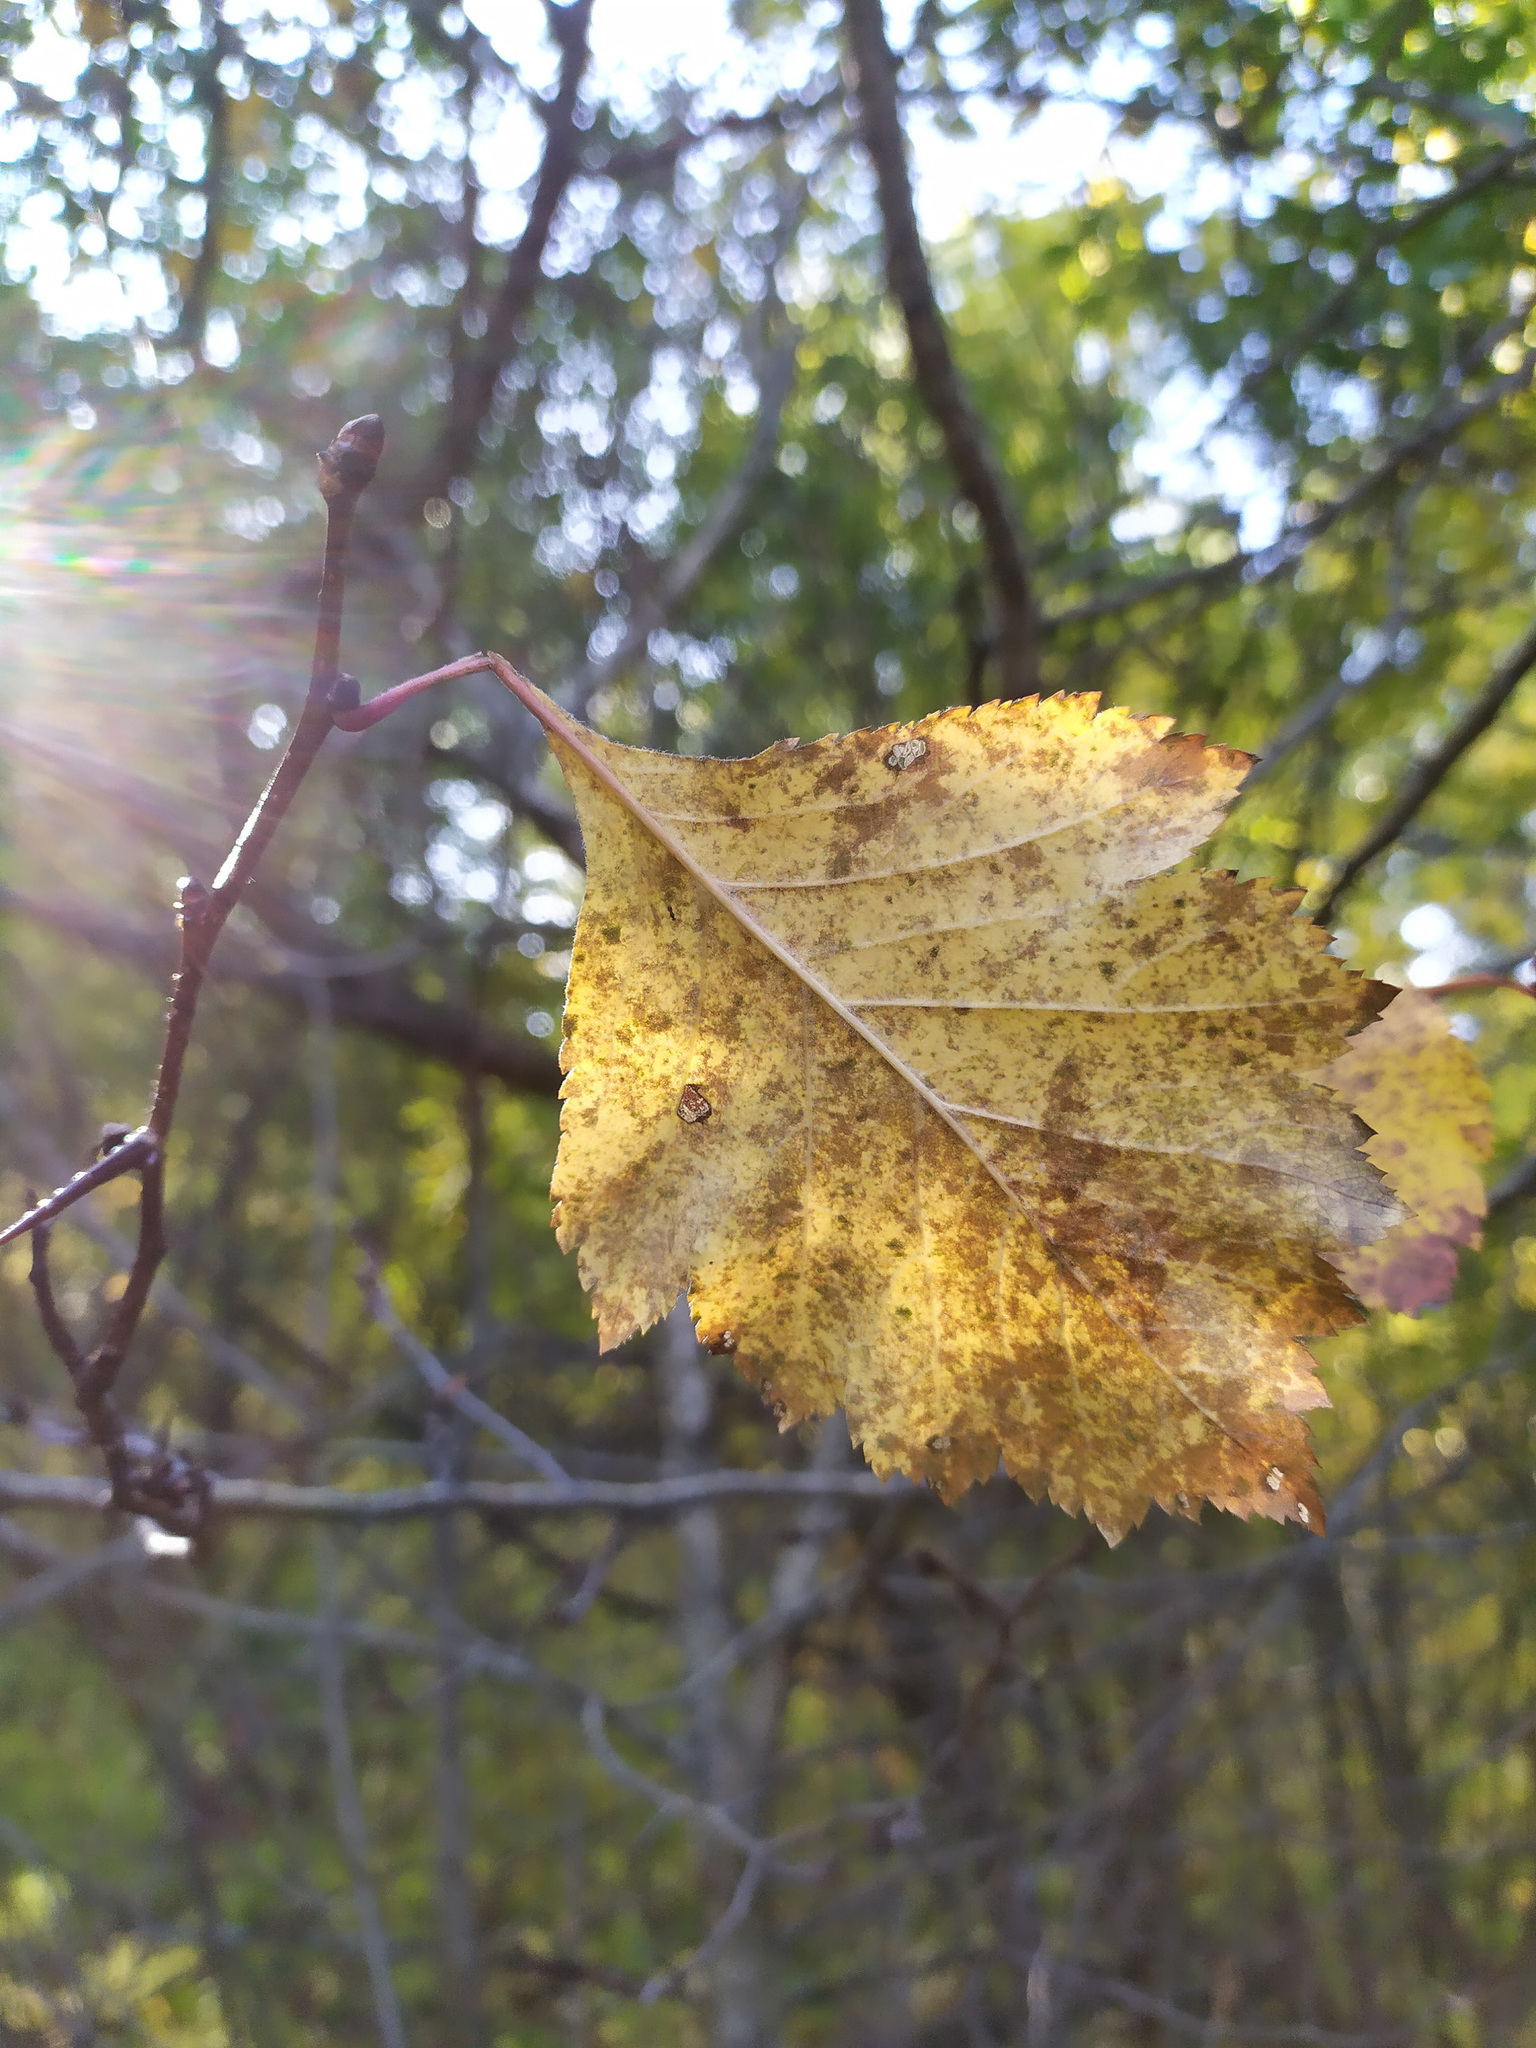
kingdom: Plantae
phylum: Tracheophyta
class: Magnoliopsida
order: Rosales
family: Rosaceae
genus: Crataegus
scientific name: Crataegus
